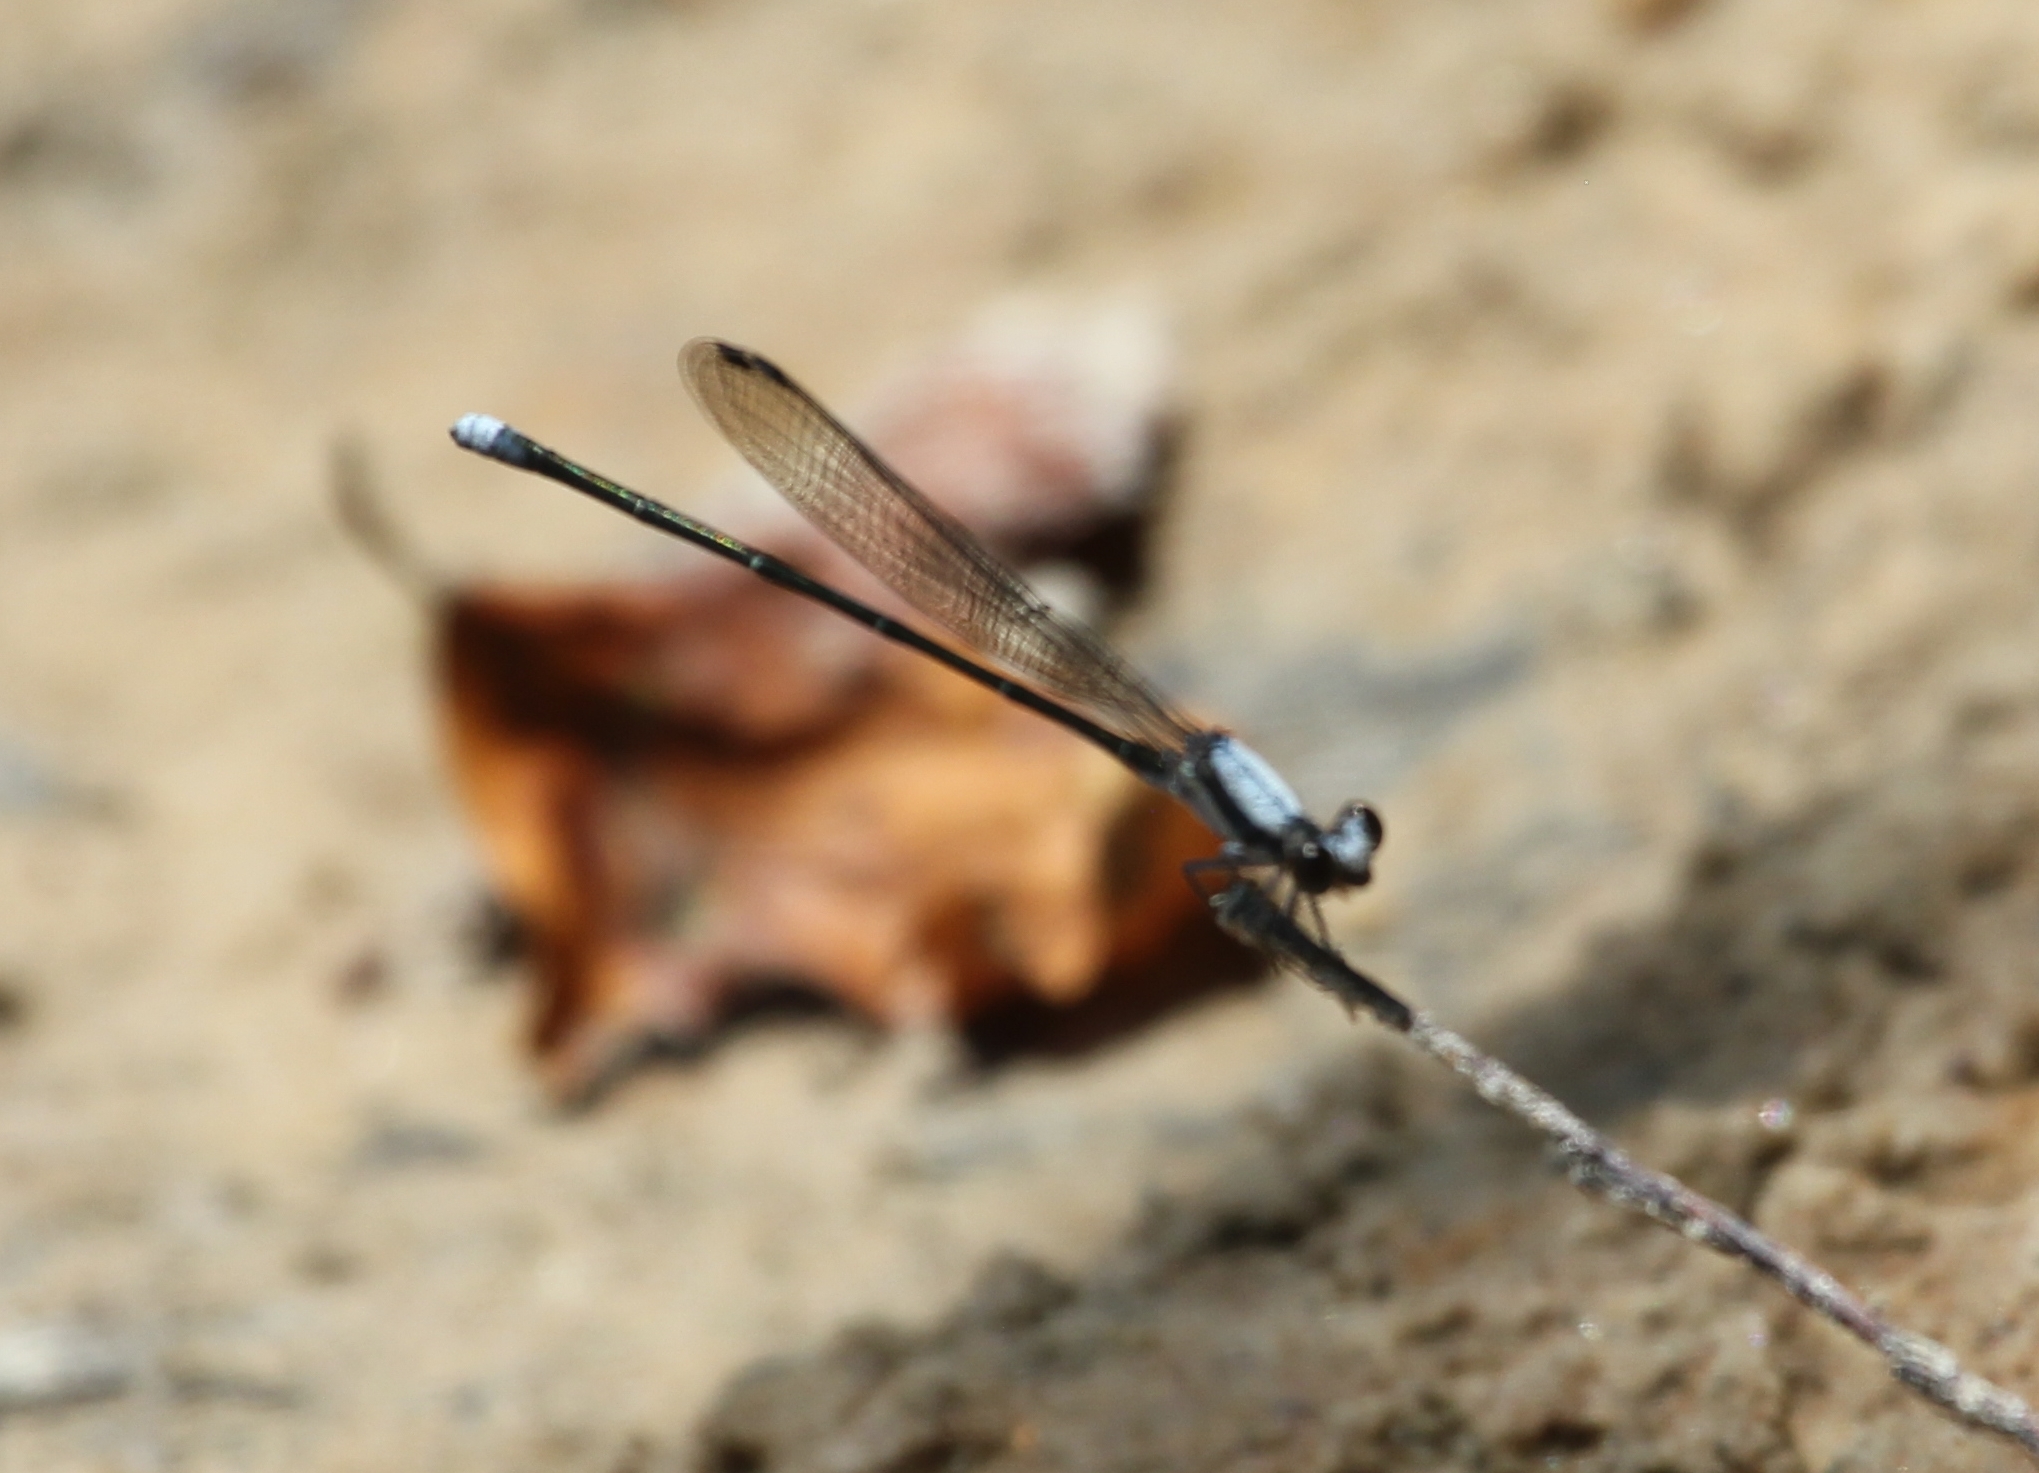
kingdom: Animalia
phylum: Arthropoda
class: Insecta
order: Odonata
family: Coenagrionidae
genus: Argia
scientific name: Argia moesta
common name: Powdered dancer
